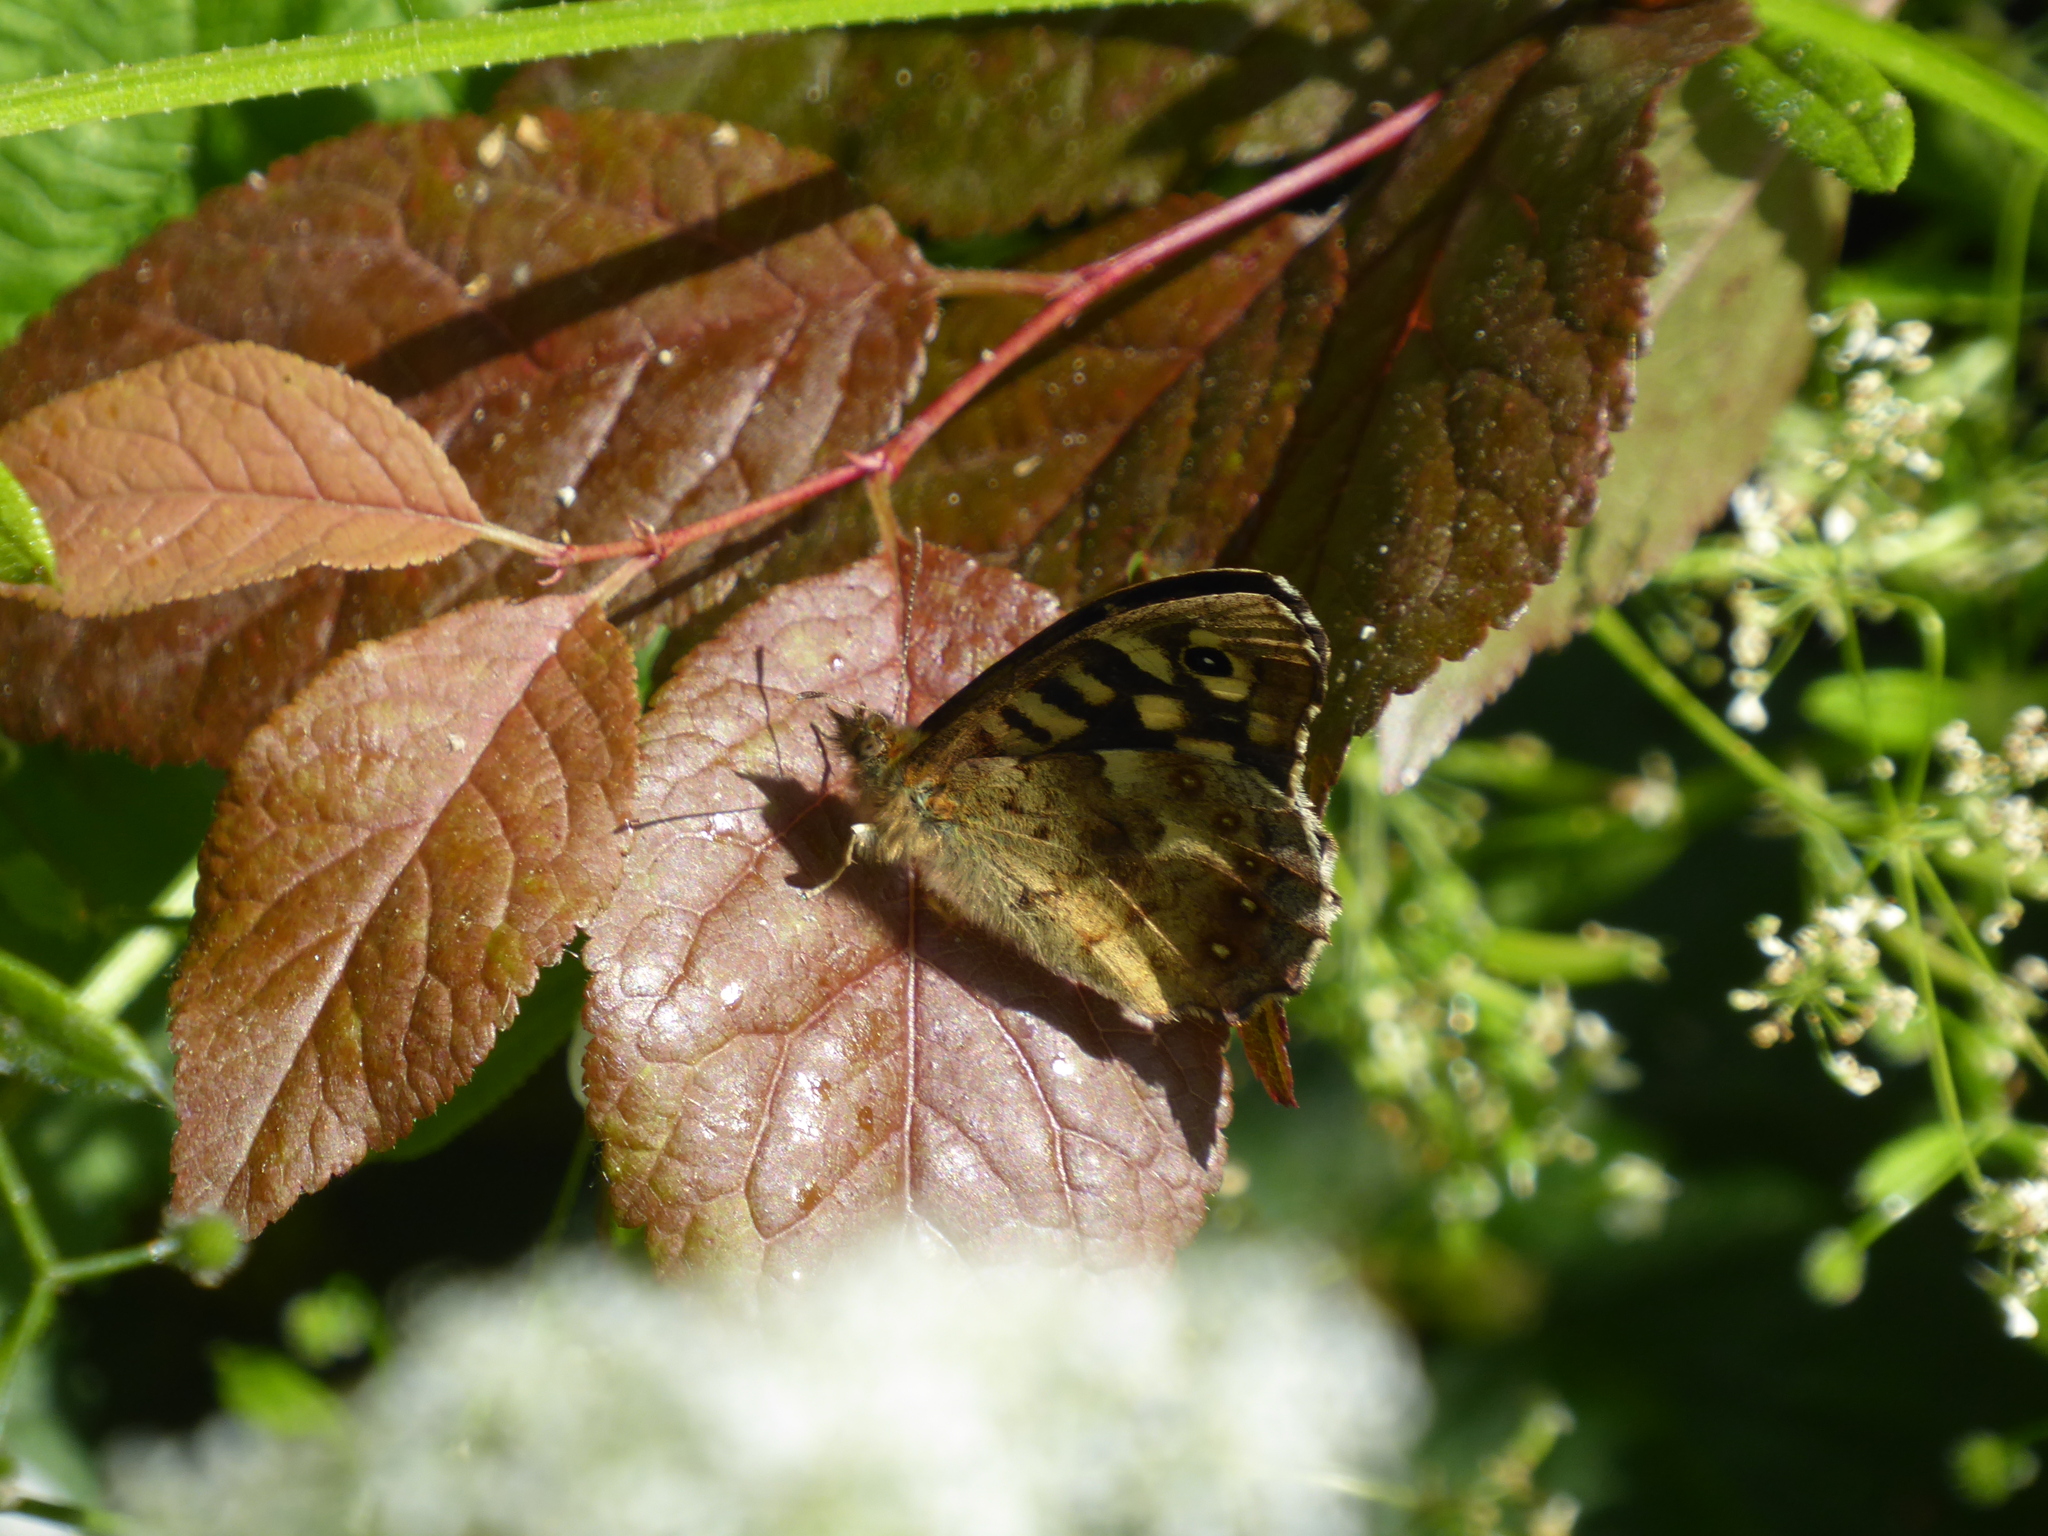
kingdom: Animalia
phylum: Arthropoda
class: Insecta
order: Lepidoptera
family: Nymphalidae
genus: Pararge
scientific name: Pararge aegeria
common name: Speckled wood
